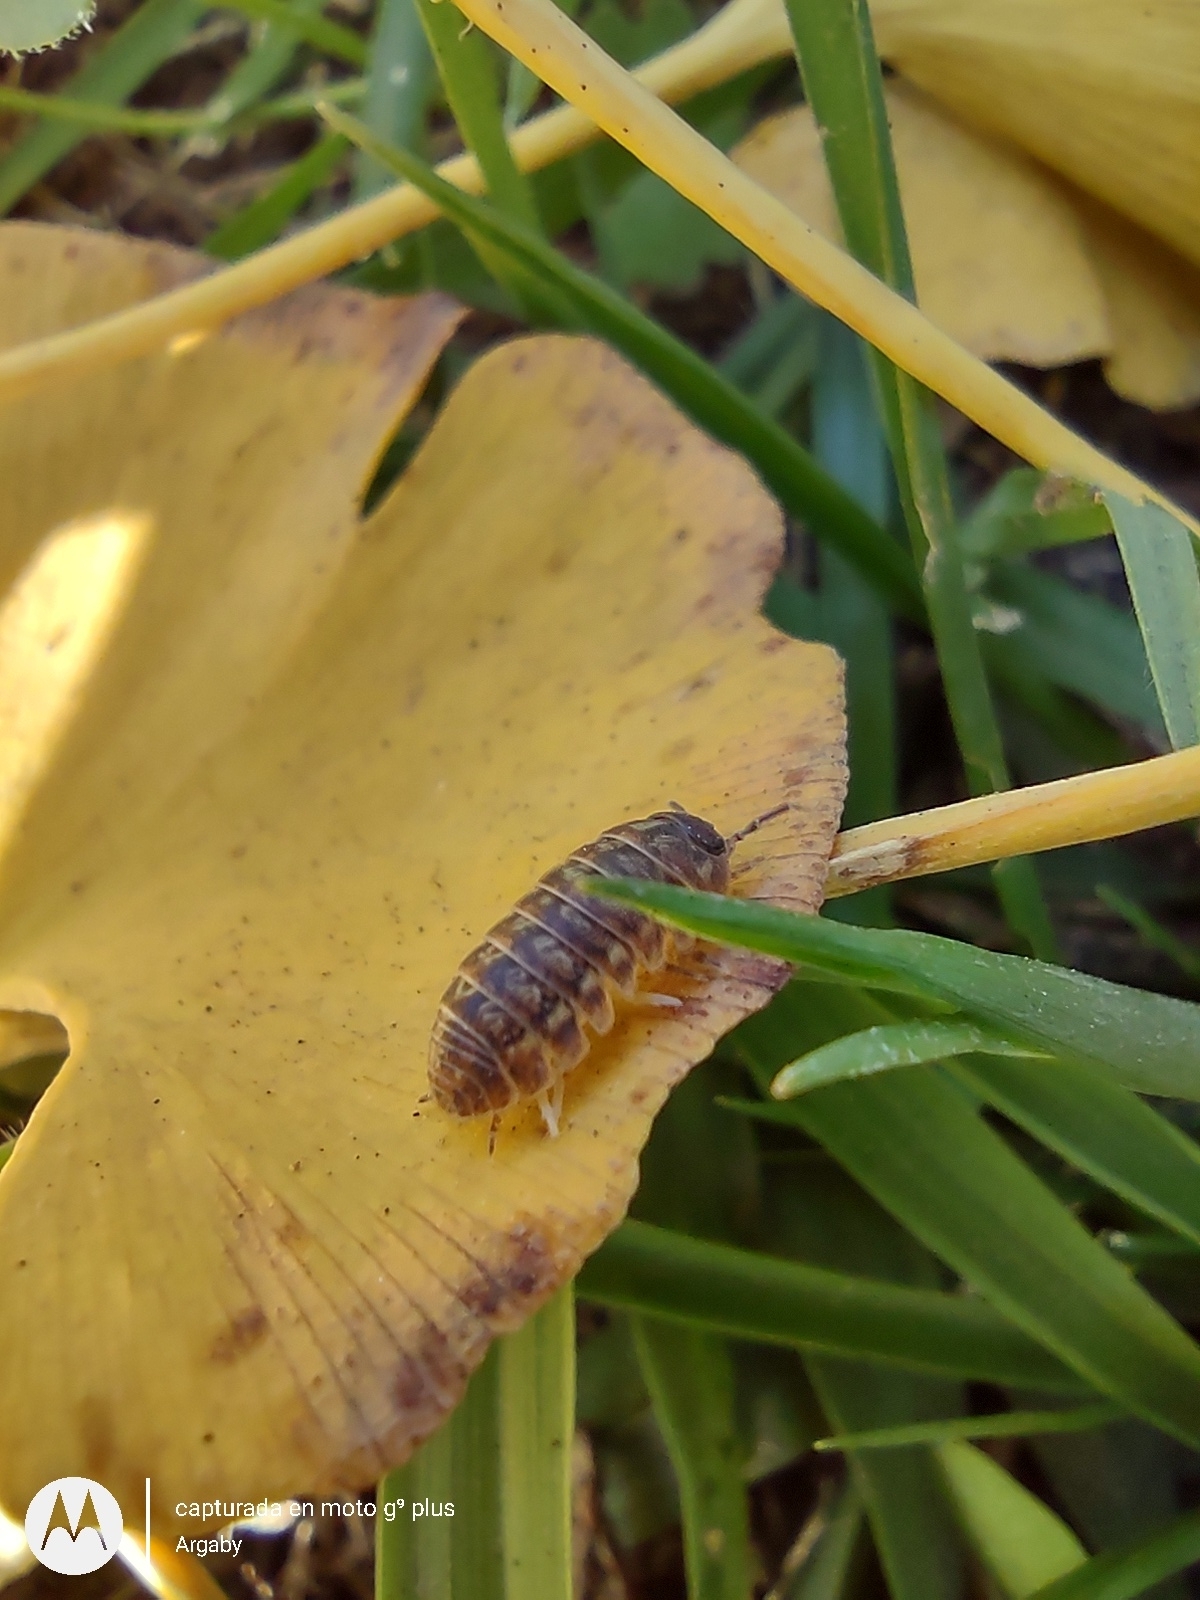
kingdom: Animalia
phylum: Arthropoda
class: Malacostraca
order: Isopoda
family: Armadillidiidae
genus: Armadillidium
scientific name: Armadillidium vulgare
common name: Common pill woodlouse
